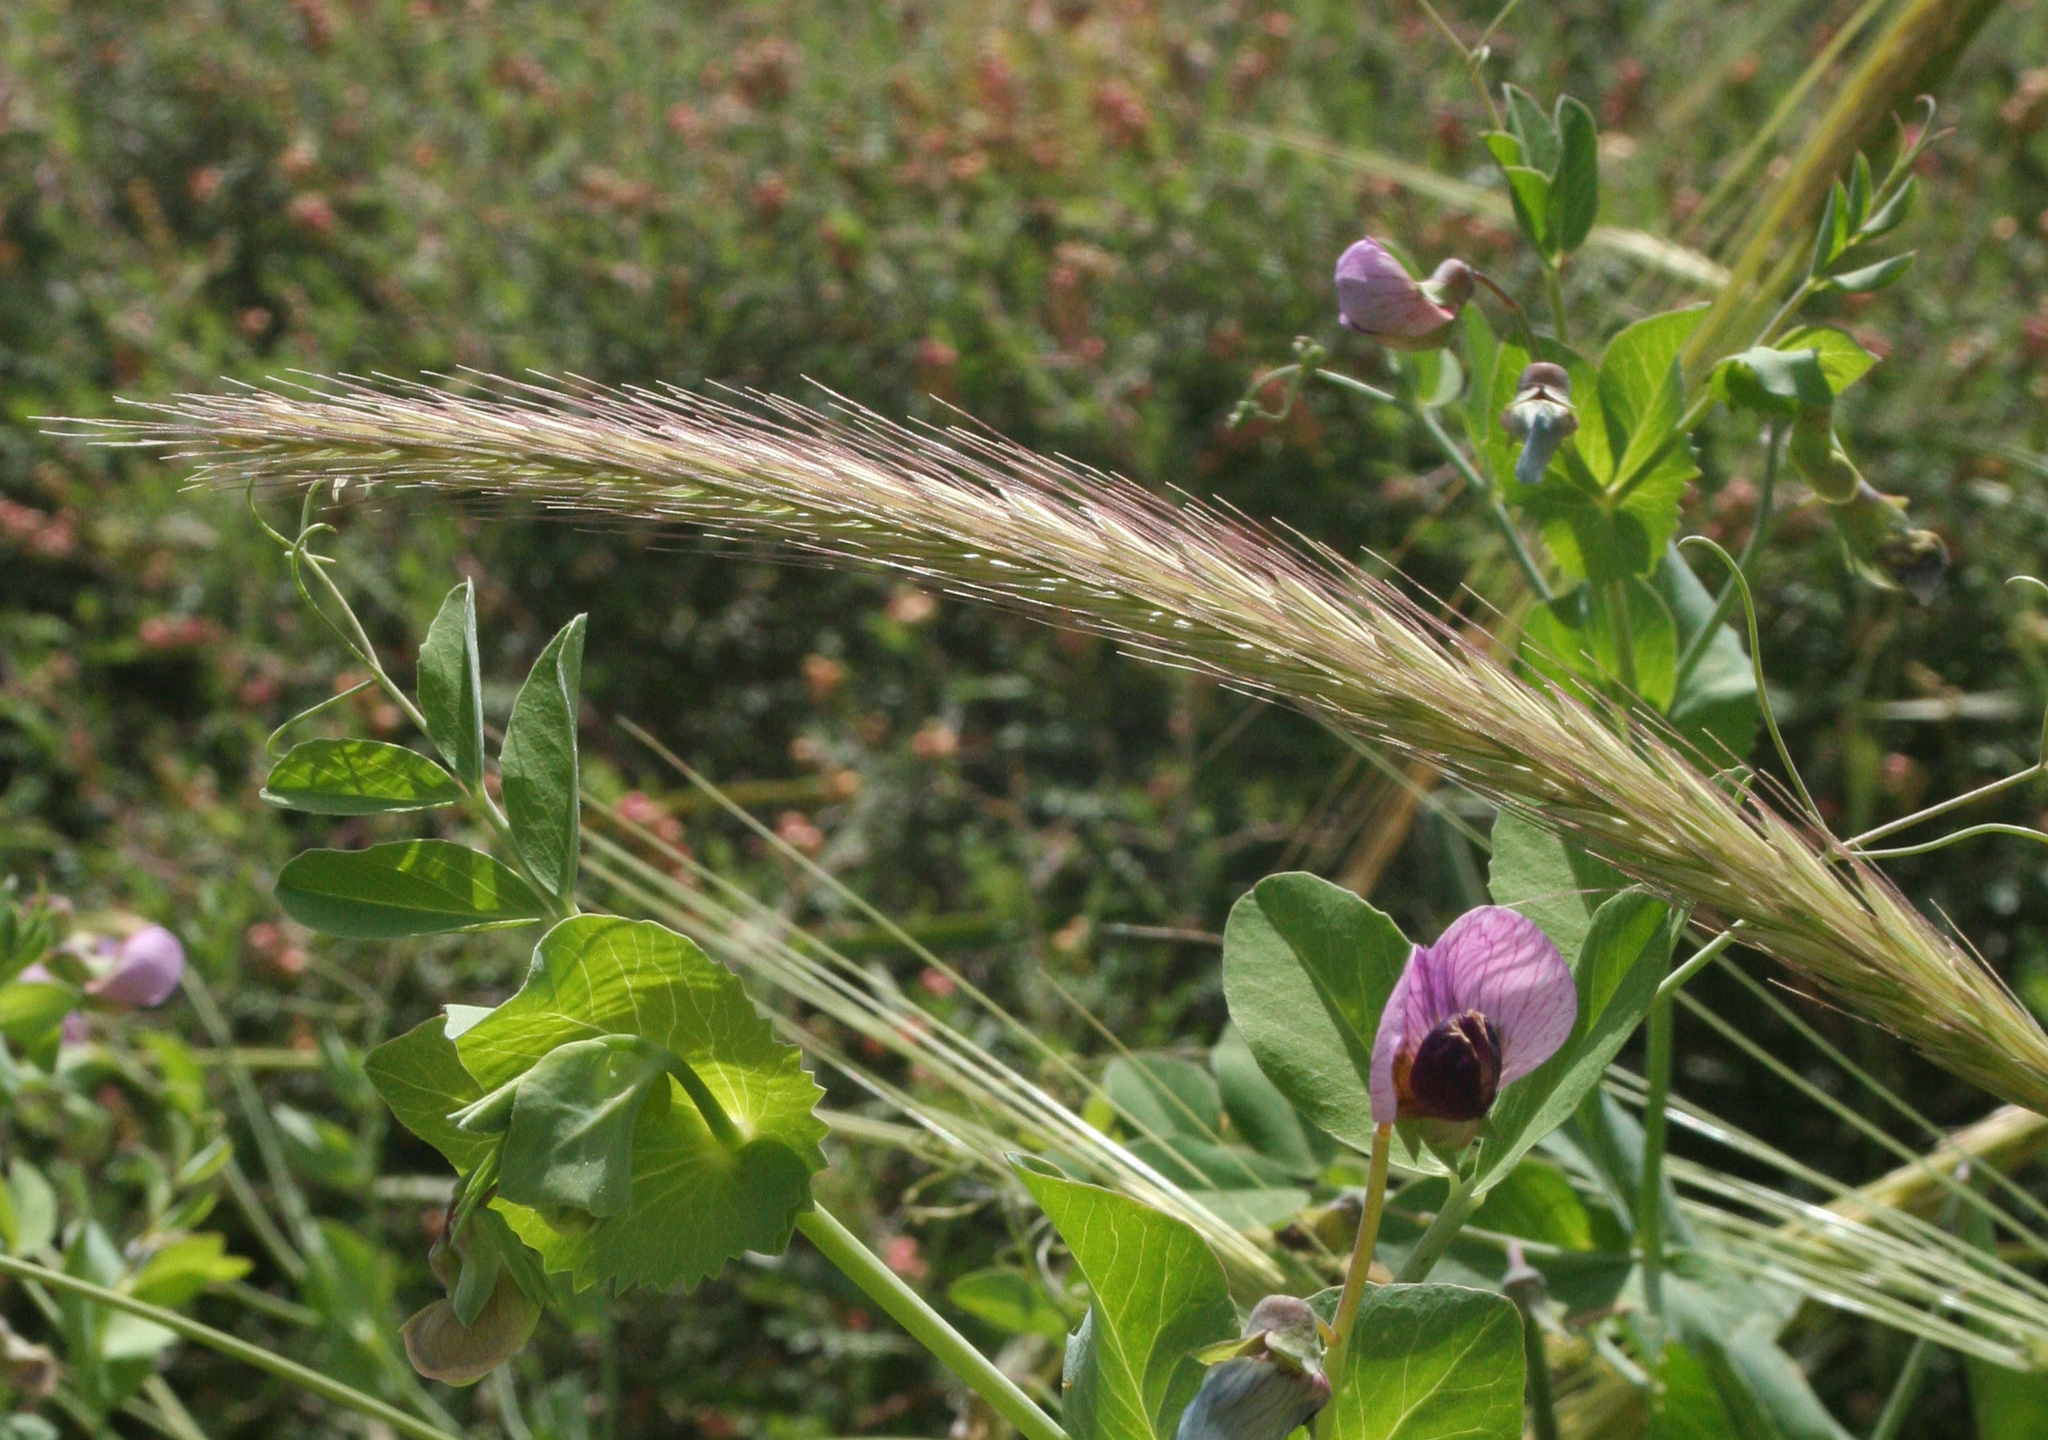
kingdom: Plantae
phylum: Tracheophyta
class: Liliopsida
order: Poales
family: Poaceae
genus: Hordeum
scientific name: Hordeum bulbosum
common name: Bulbous barley
